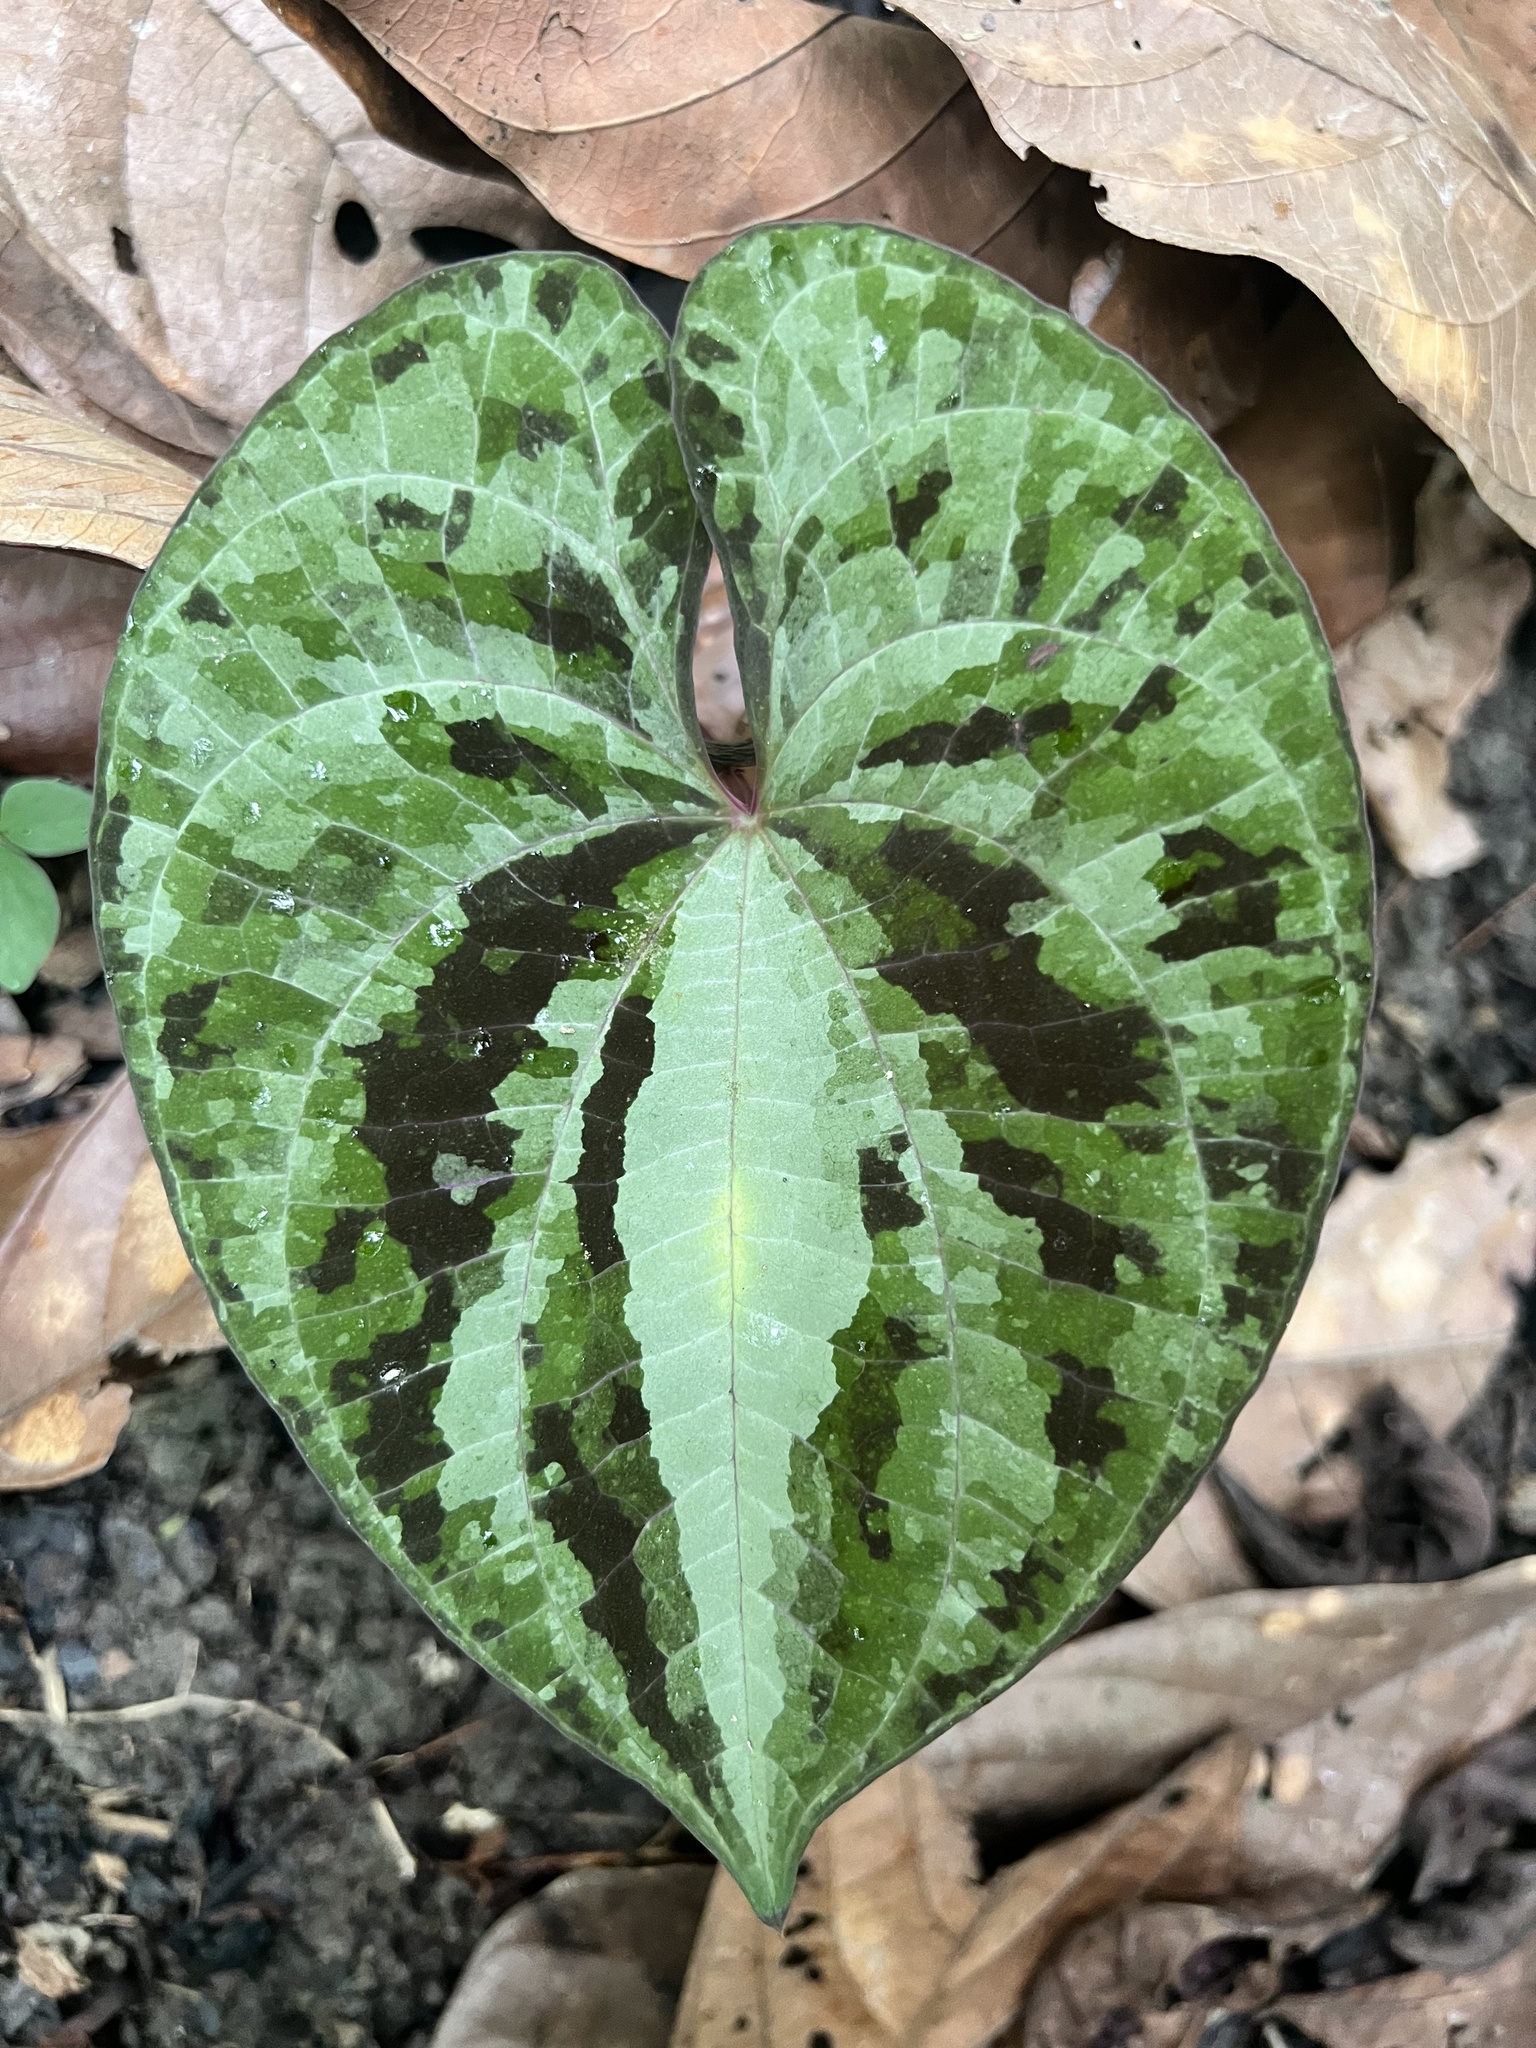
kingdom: Plantae
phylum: Tracheophyta
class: Liliopsida
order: Dioscoreales
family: Dioscoreaceae
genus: Dioscorea
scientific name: Dioscorea dodecaneura
